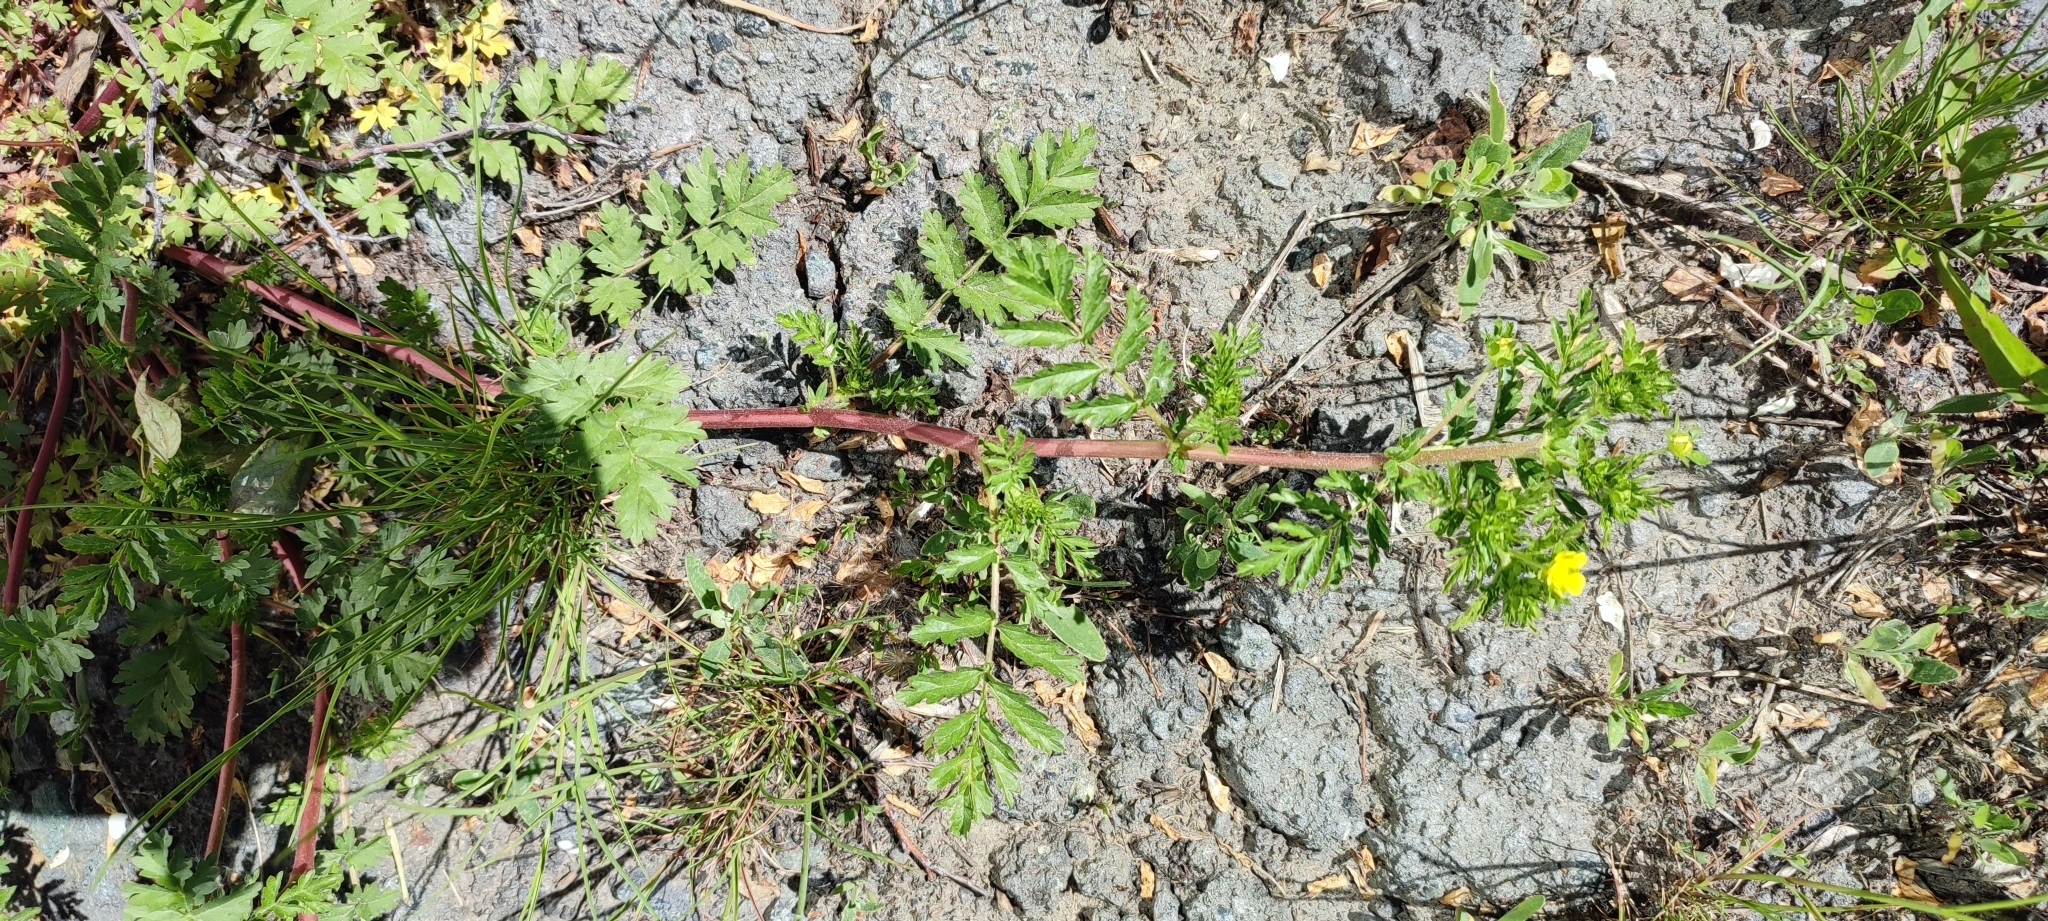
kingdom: Plantae
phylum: Tracheophyta
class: Magnoliopsida
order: Rosales
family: Rosaceae
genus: Potentilla
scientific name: Potentilla supina
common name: Prostrate cinquefoil
